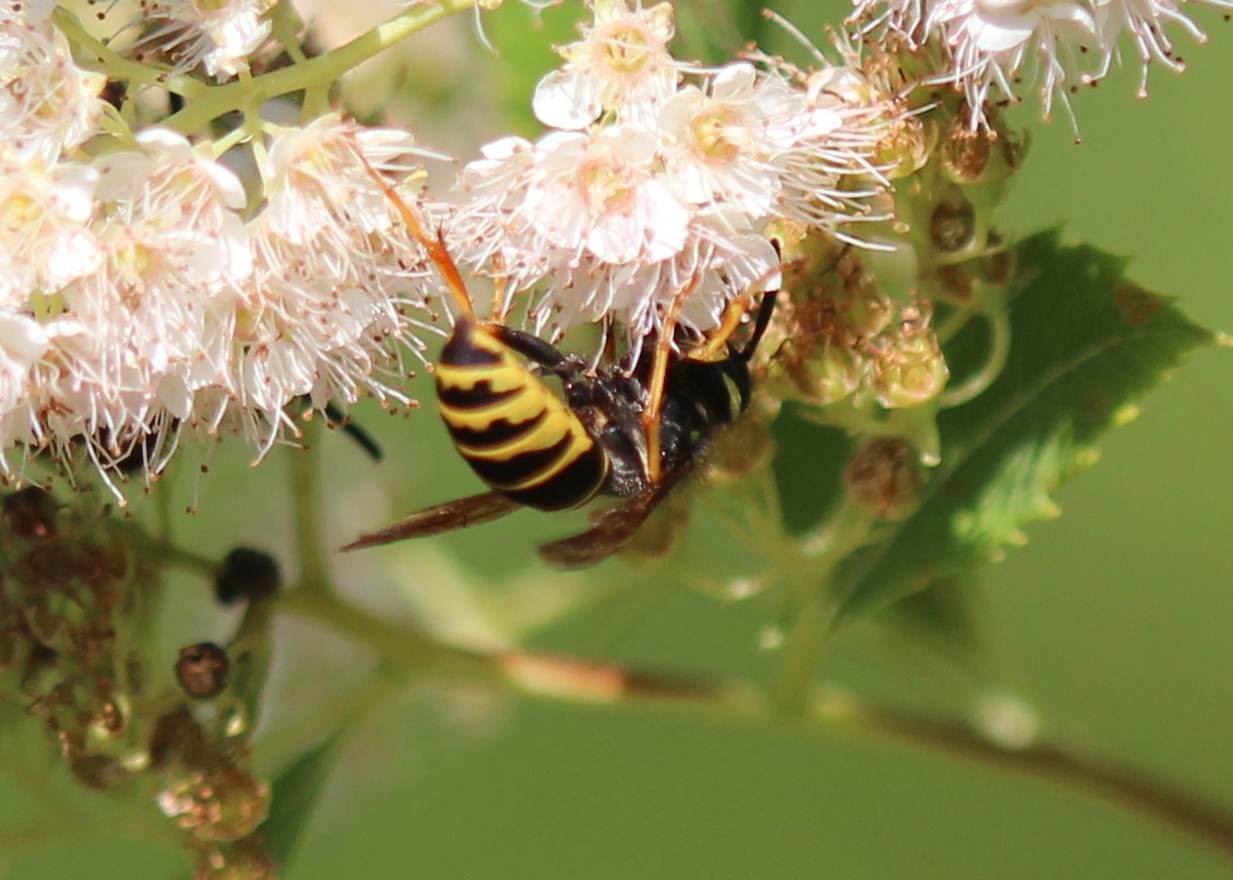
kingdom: Animalia
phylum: Arthropoda
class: Insecta
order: Hymenoptera
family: Vespidae
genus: Vespula
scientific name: Vespula vidua
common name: Widow yellowjacket
